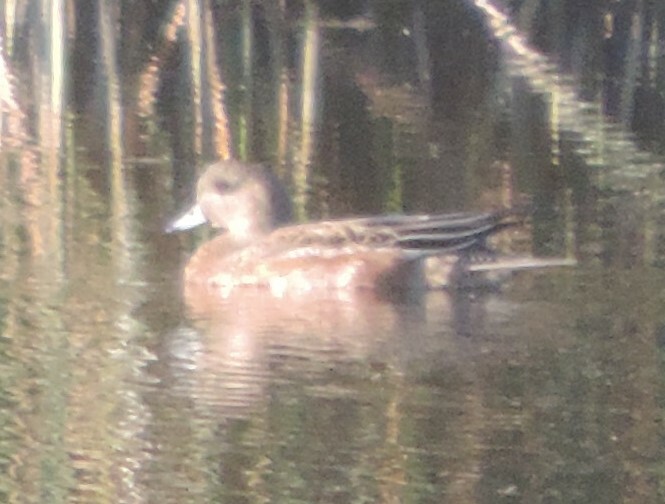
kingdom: Animalia
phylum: Chordata
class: Aves
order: Anseriformes
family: Anatidae
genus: Mareca
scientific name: Mareca americana
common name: American wigeon
